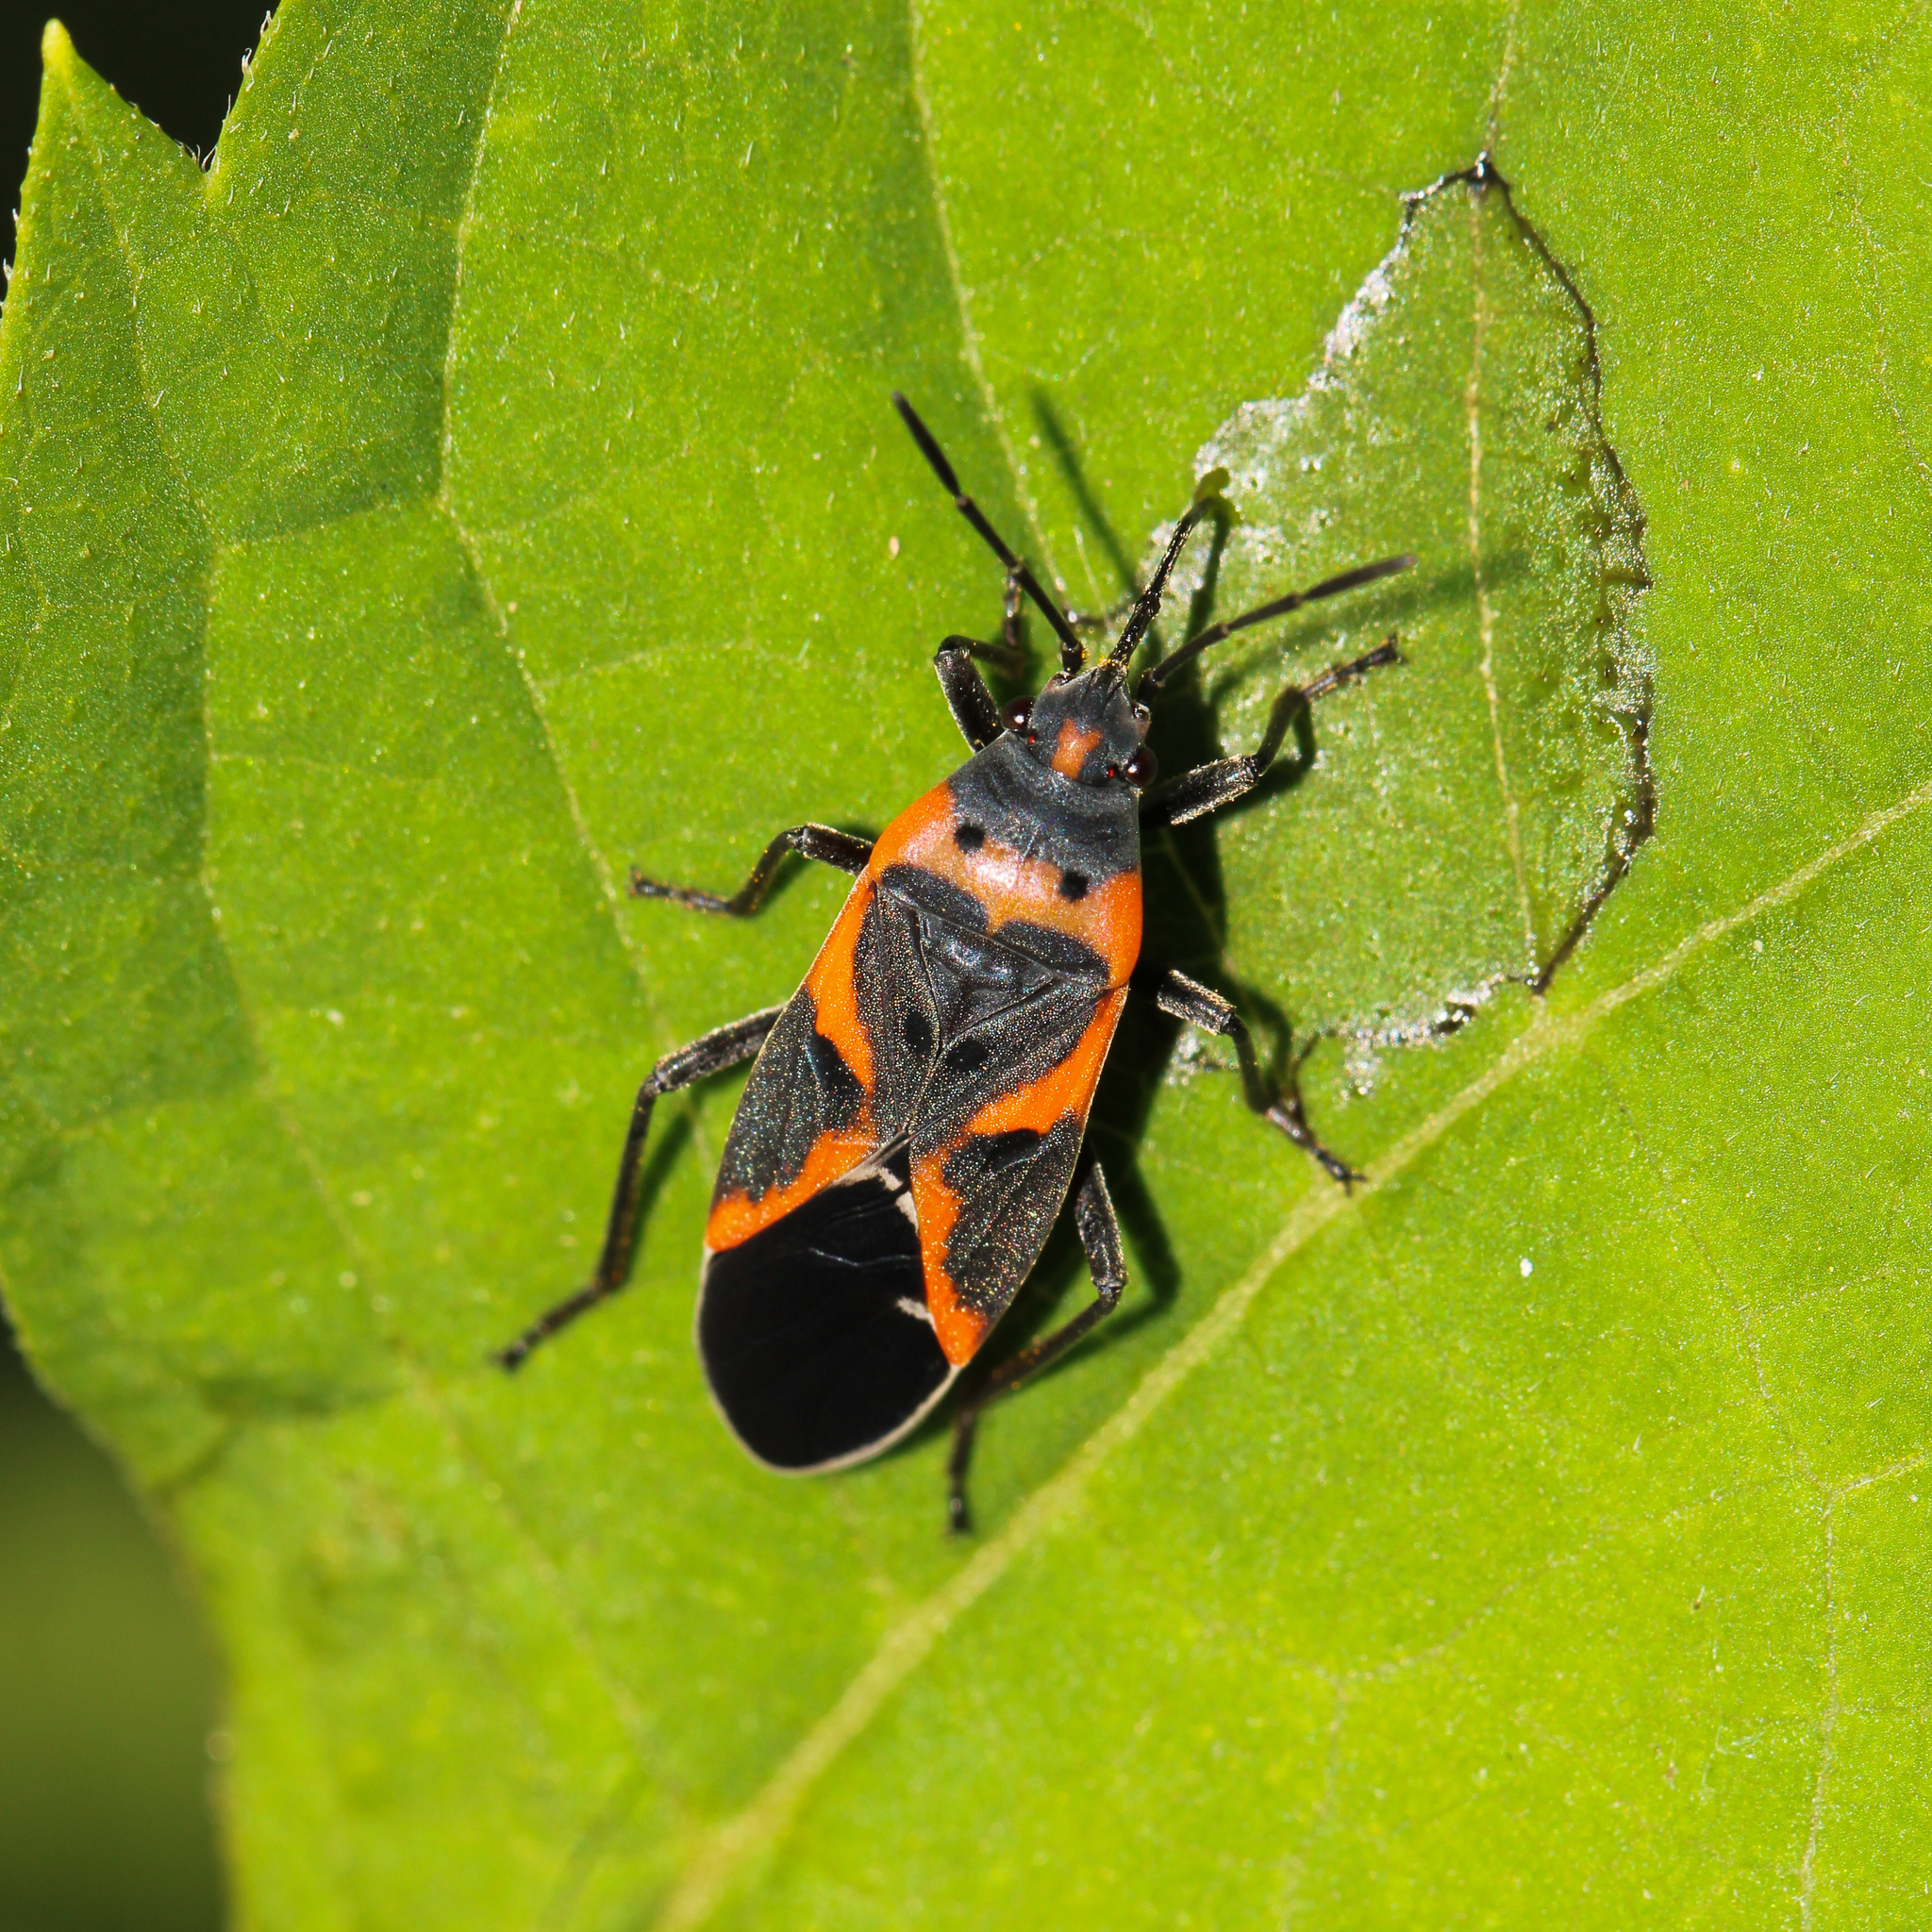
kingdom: Animalia
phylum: Arthropoda
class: Insecta
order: Hemiptera
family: Lygaeidae
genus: Lygaeus
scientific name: Lygaeus kalmii
